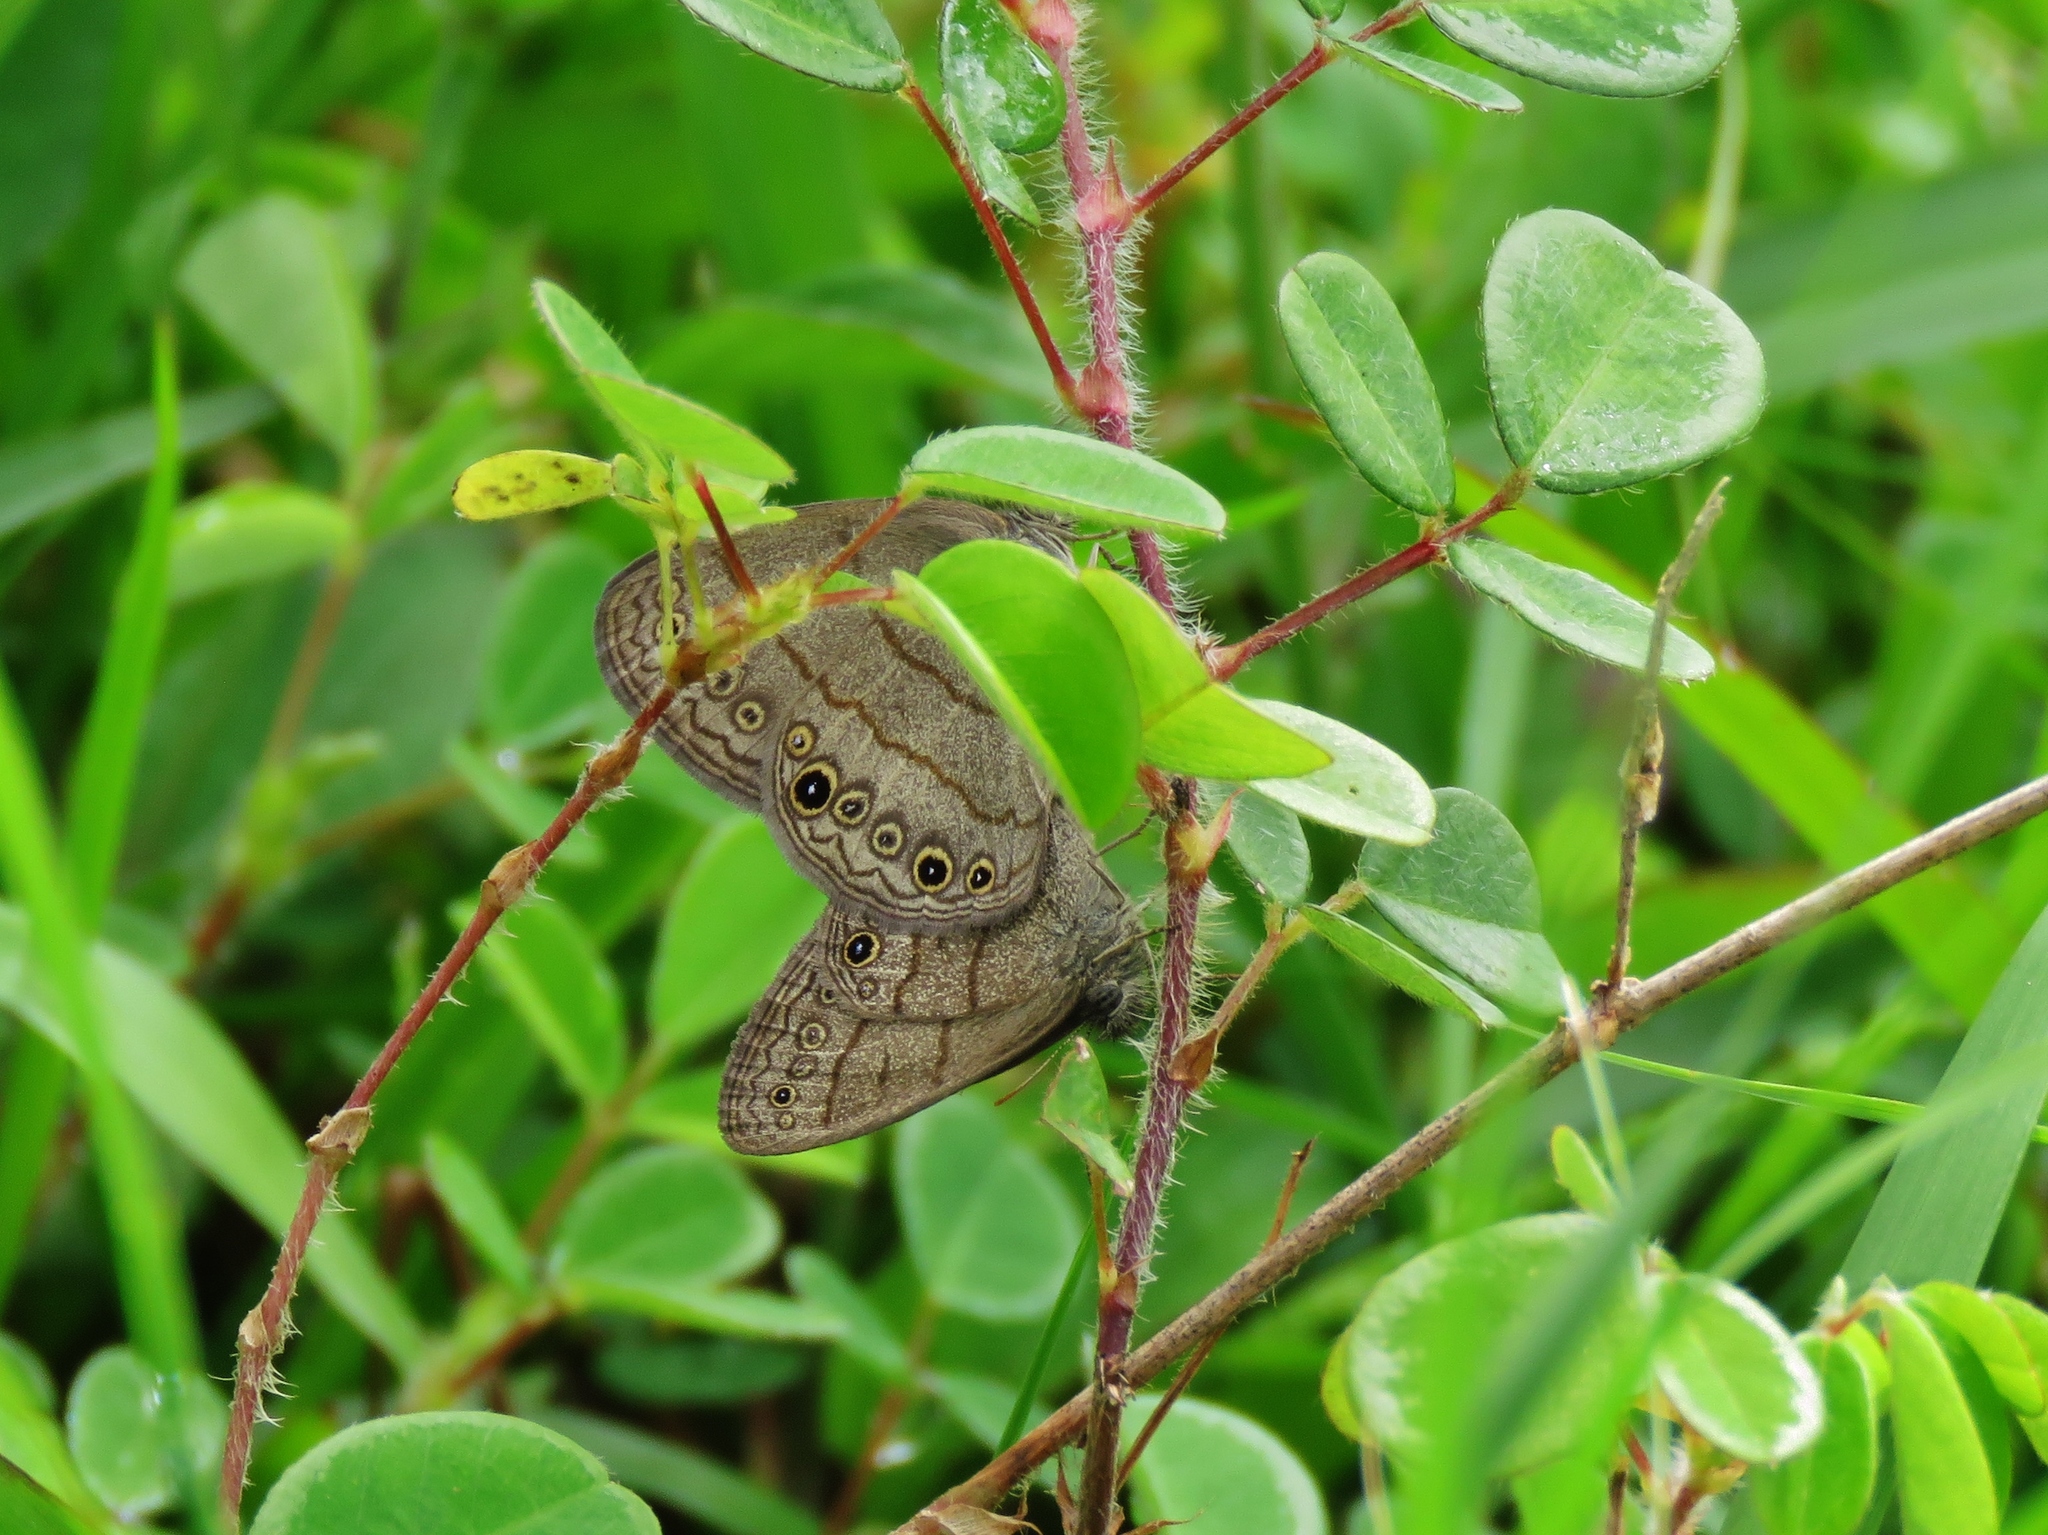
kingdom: Animalia
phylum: Arthropoda
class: Insecta
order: Lepidoptera
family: Nymphalidae
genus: Hermeuptychia
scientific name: Hermeuptychia hermes
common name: Hermes satyr
